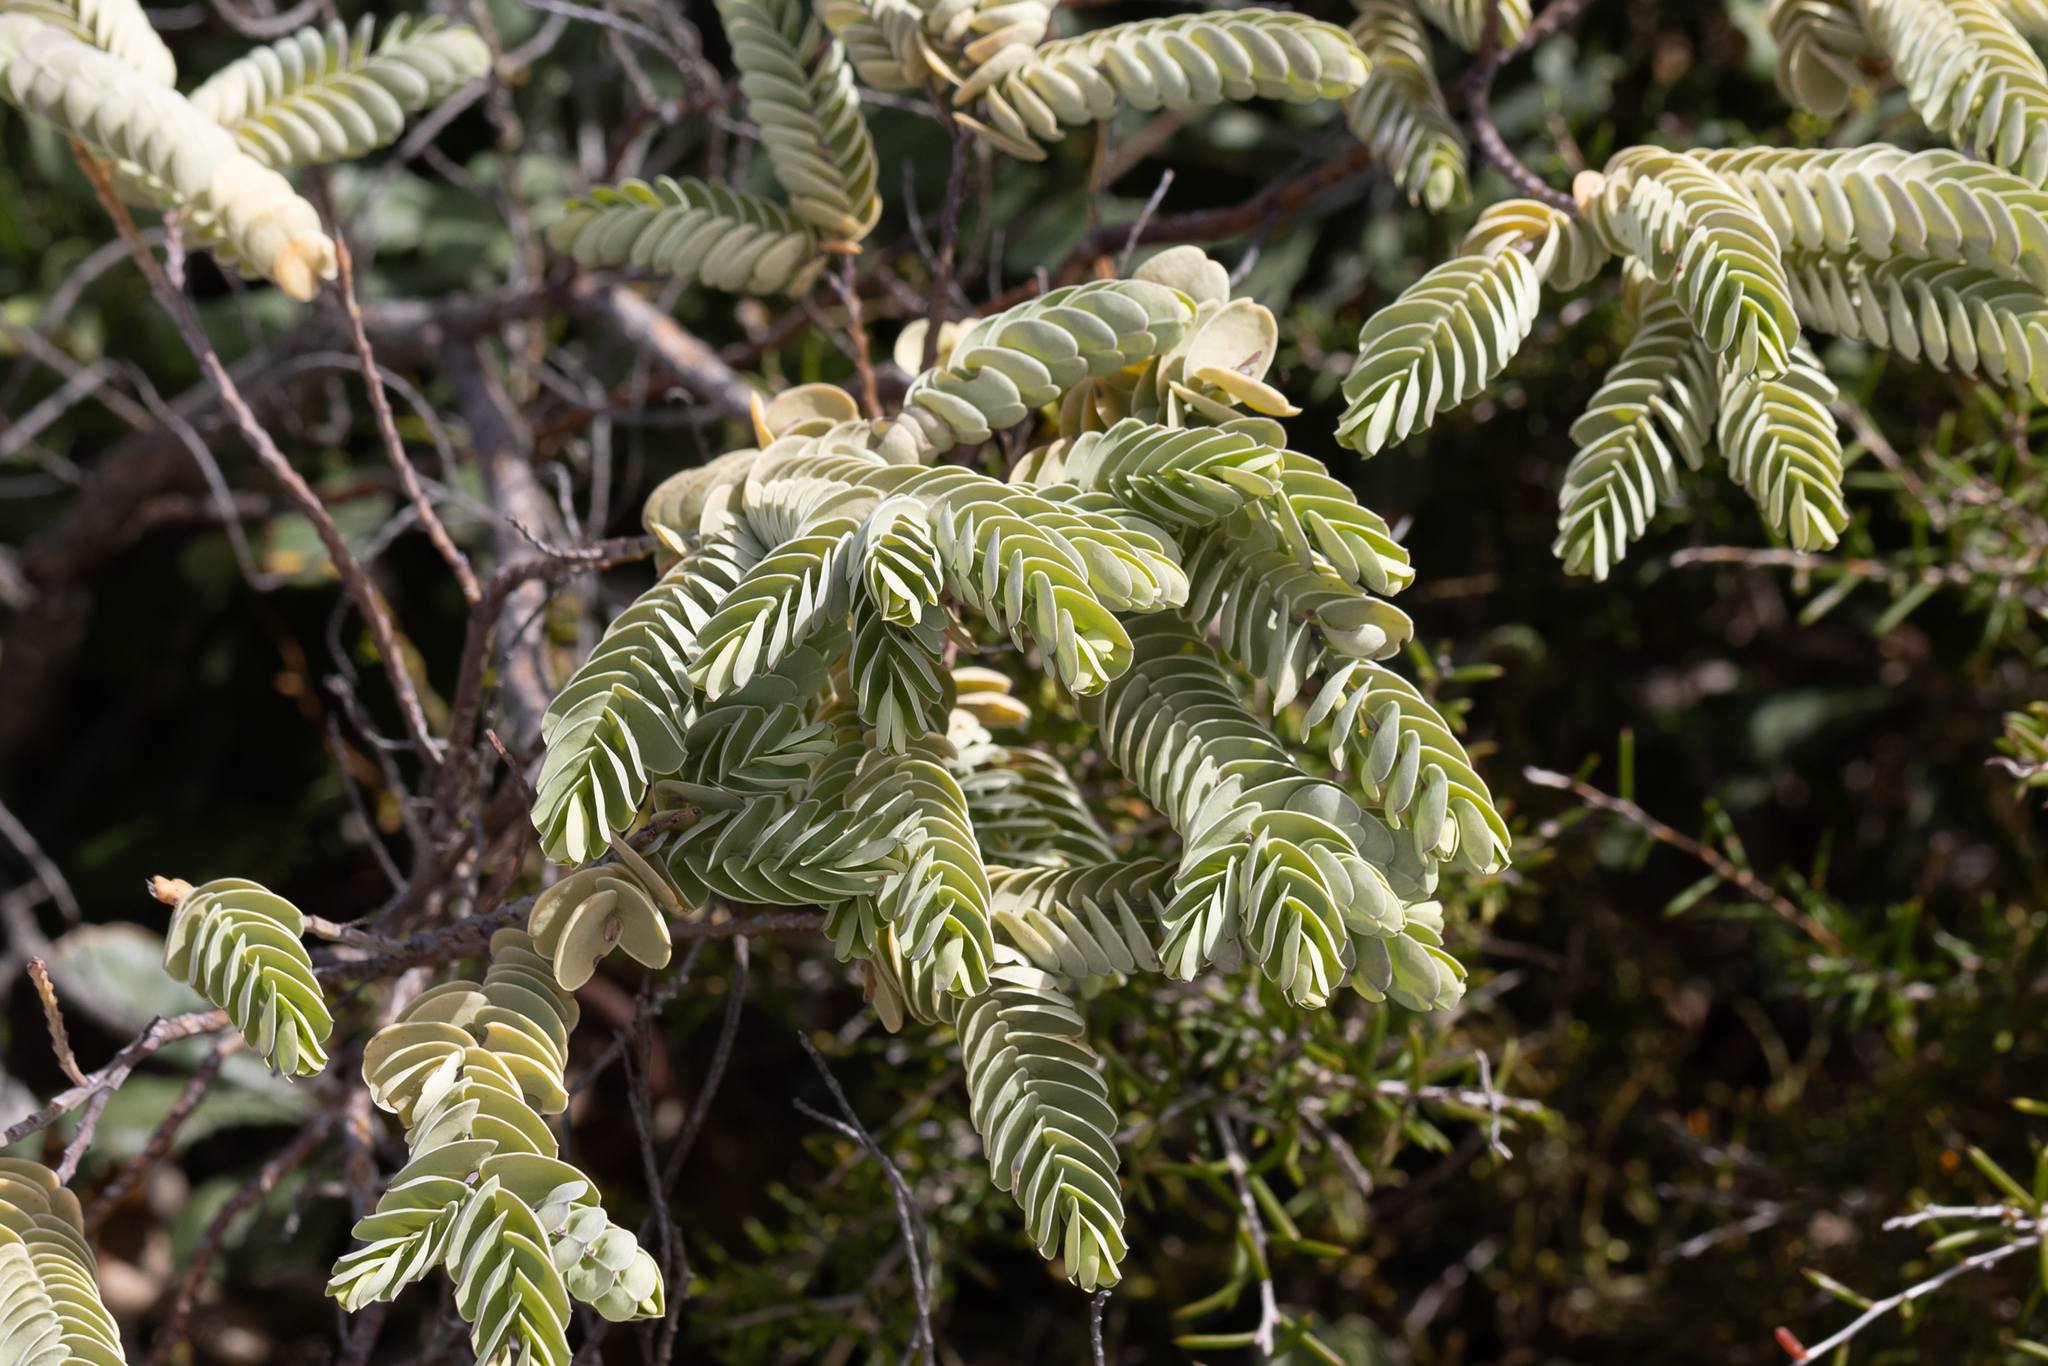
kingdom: Plantae
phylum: Tracheophyta
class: Magnoliopsida
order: Santalales
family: Olacaceae
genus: Olax
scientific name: Olax phyllanthi
